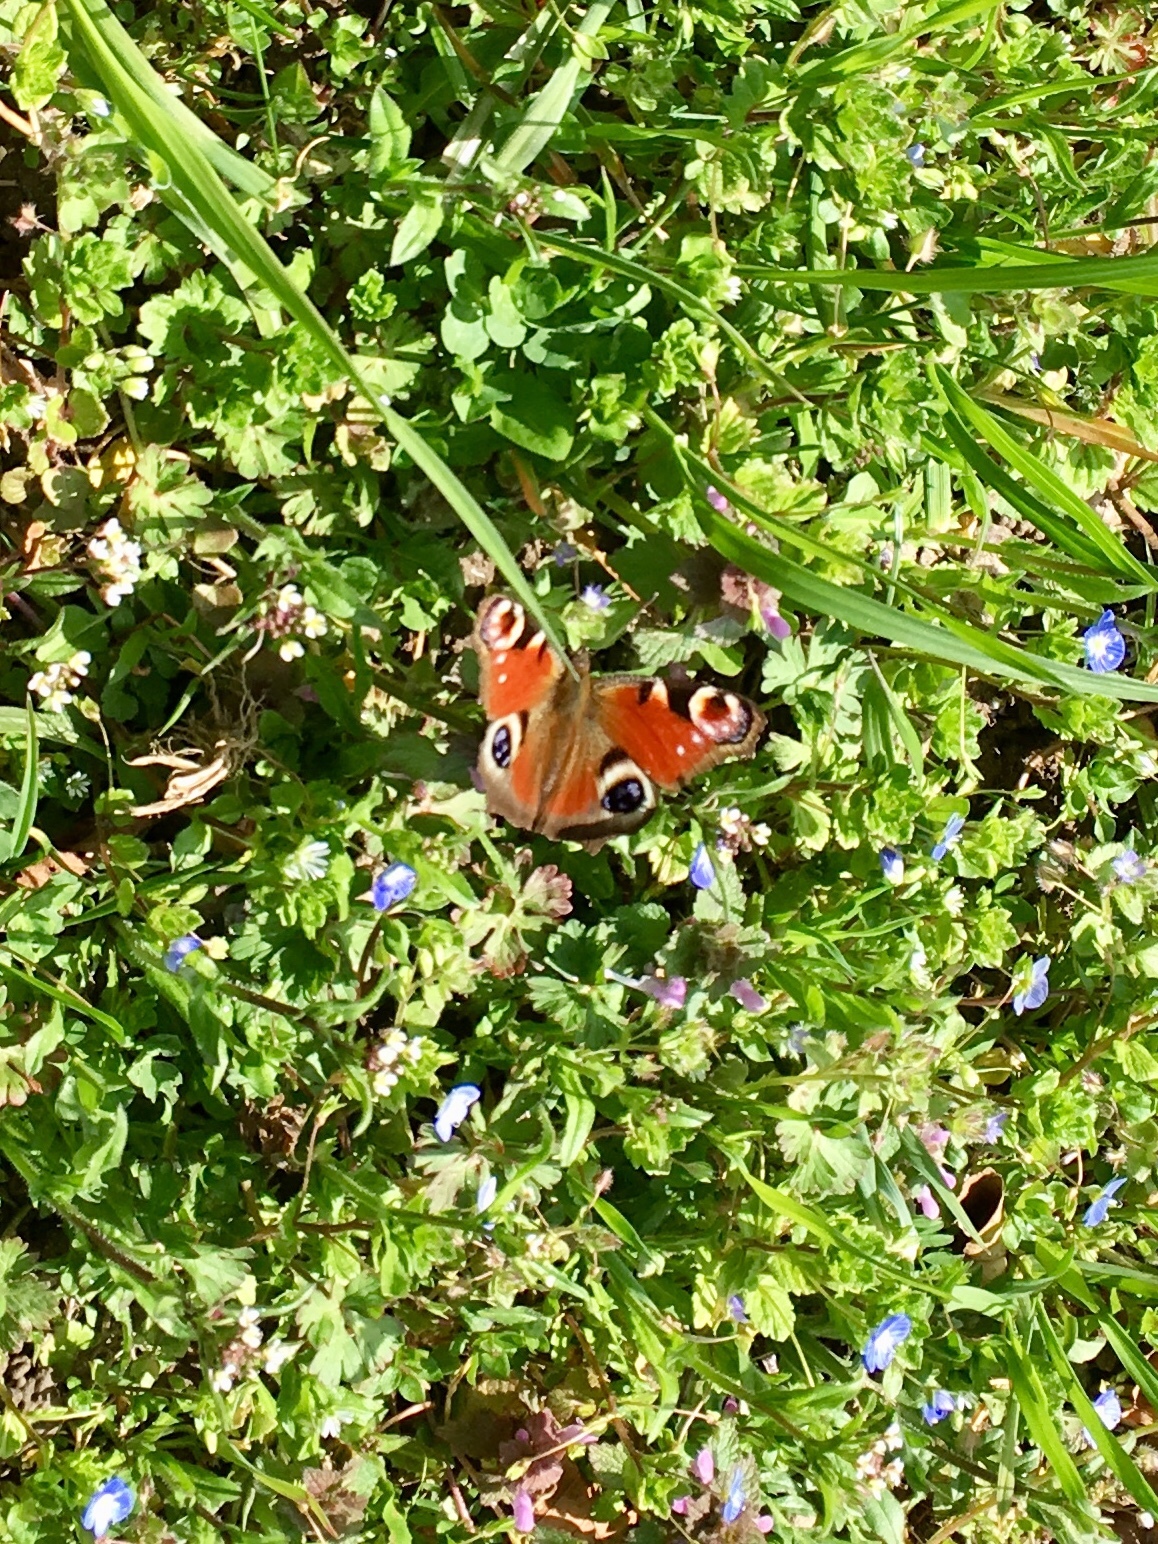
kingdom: Animalia
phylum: Arthropoda
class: Insecta
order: Lepidoptera
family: Nymphalidae
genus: Aglais
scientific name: Aglais io
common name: Peacock
